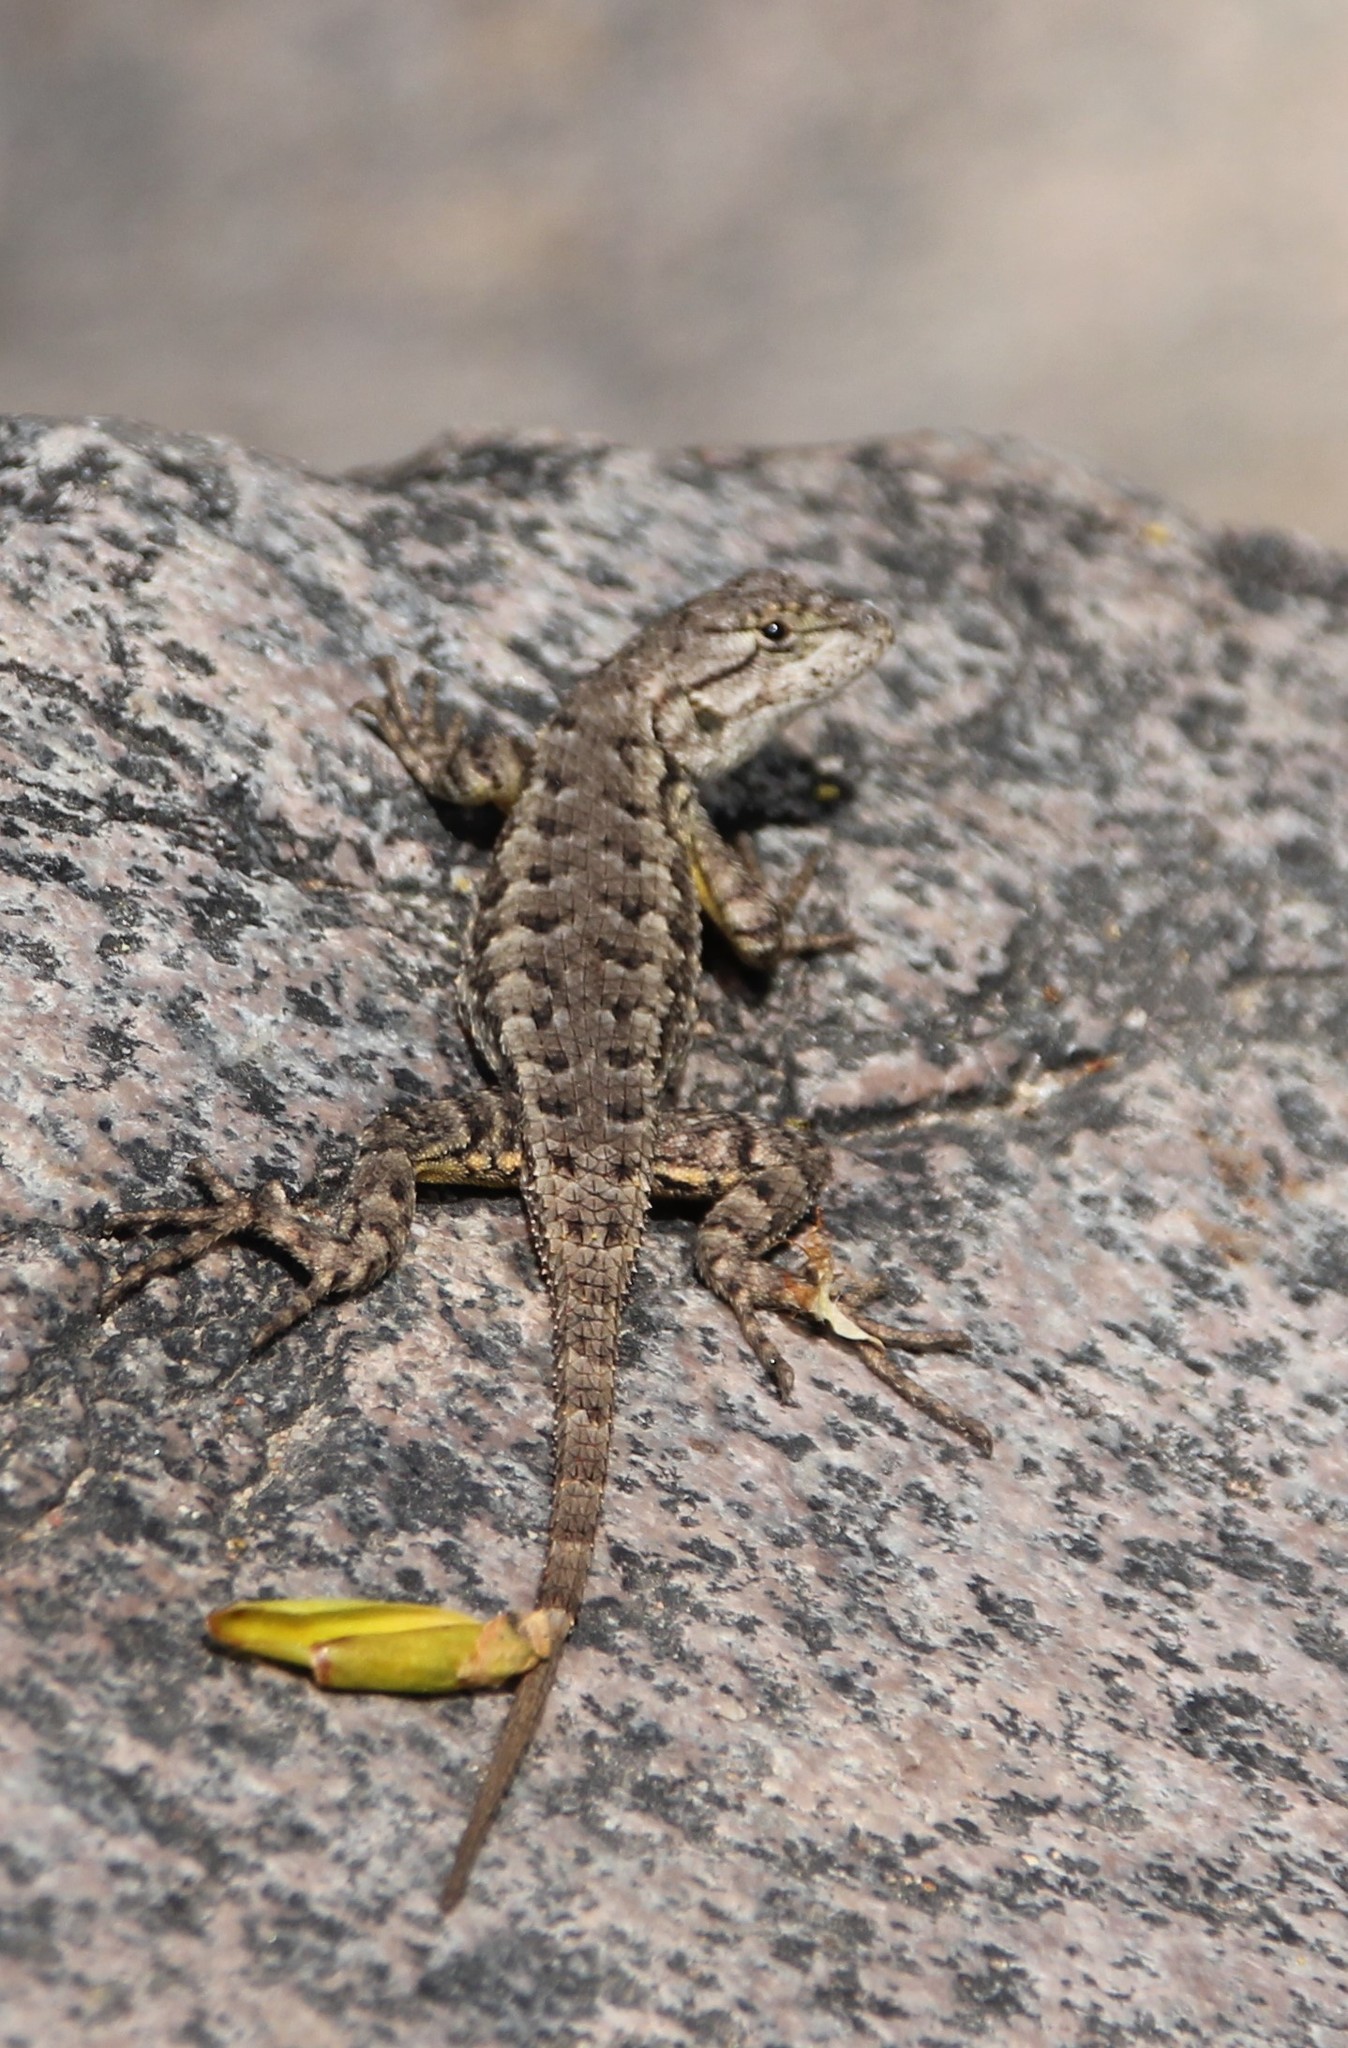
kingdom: Animalia
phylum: Chordata
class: Squamata
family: Phrynosomatidae
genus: Sceloporus
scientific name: Sceloporus occidentalis
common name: Western fence lizard
